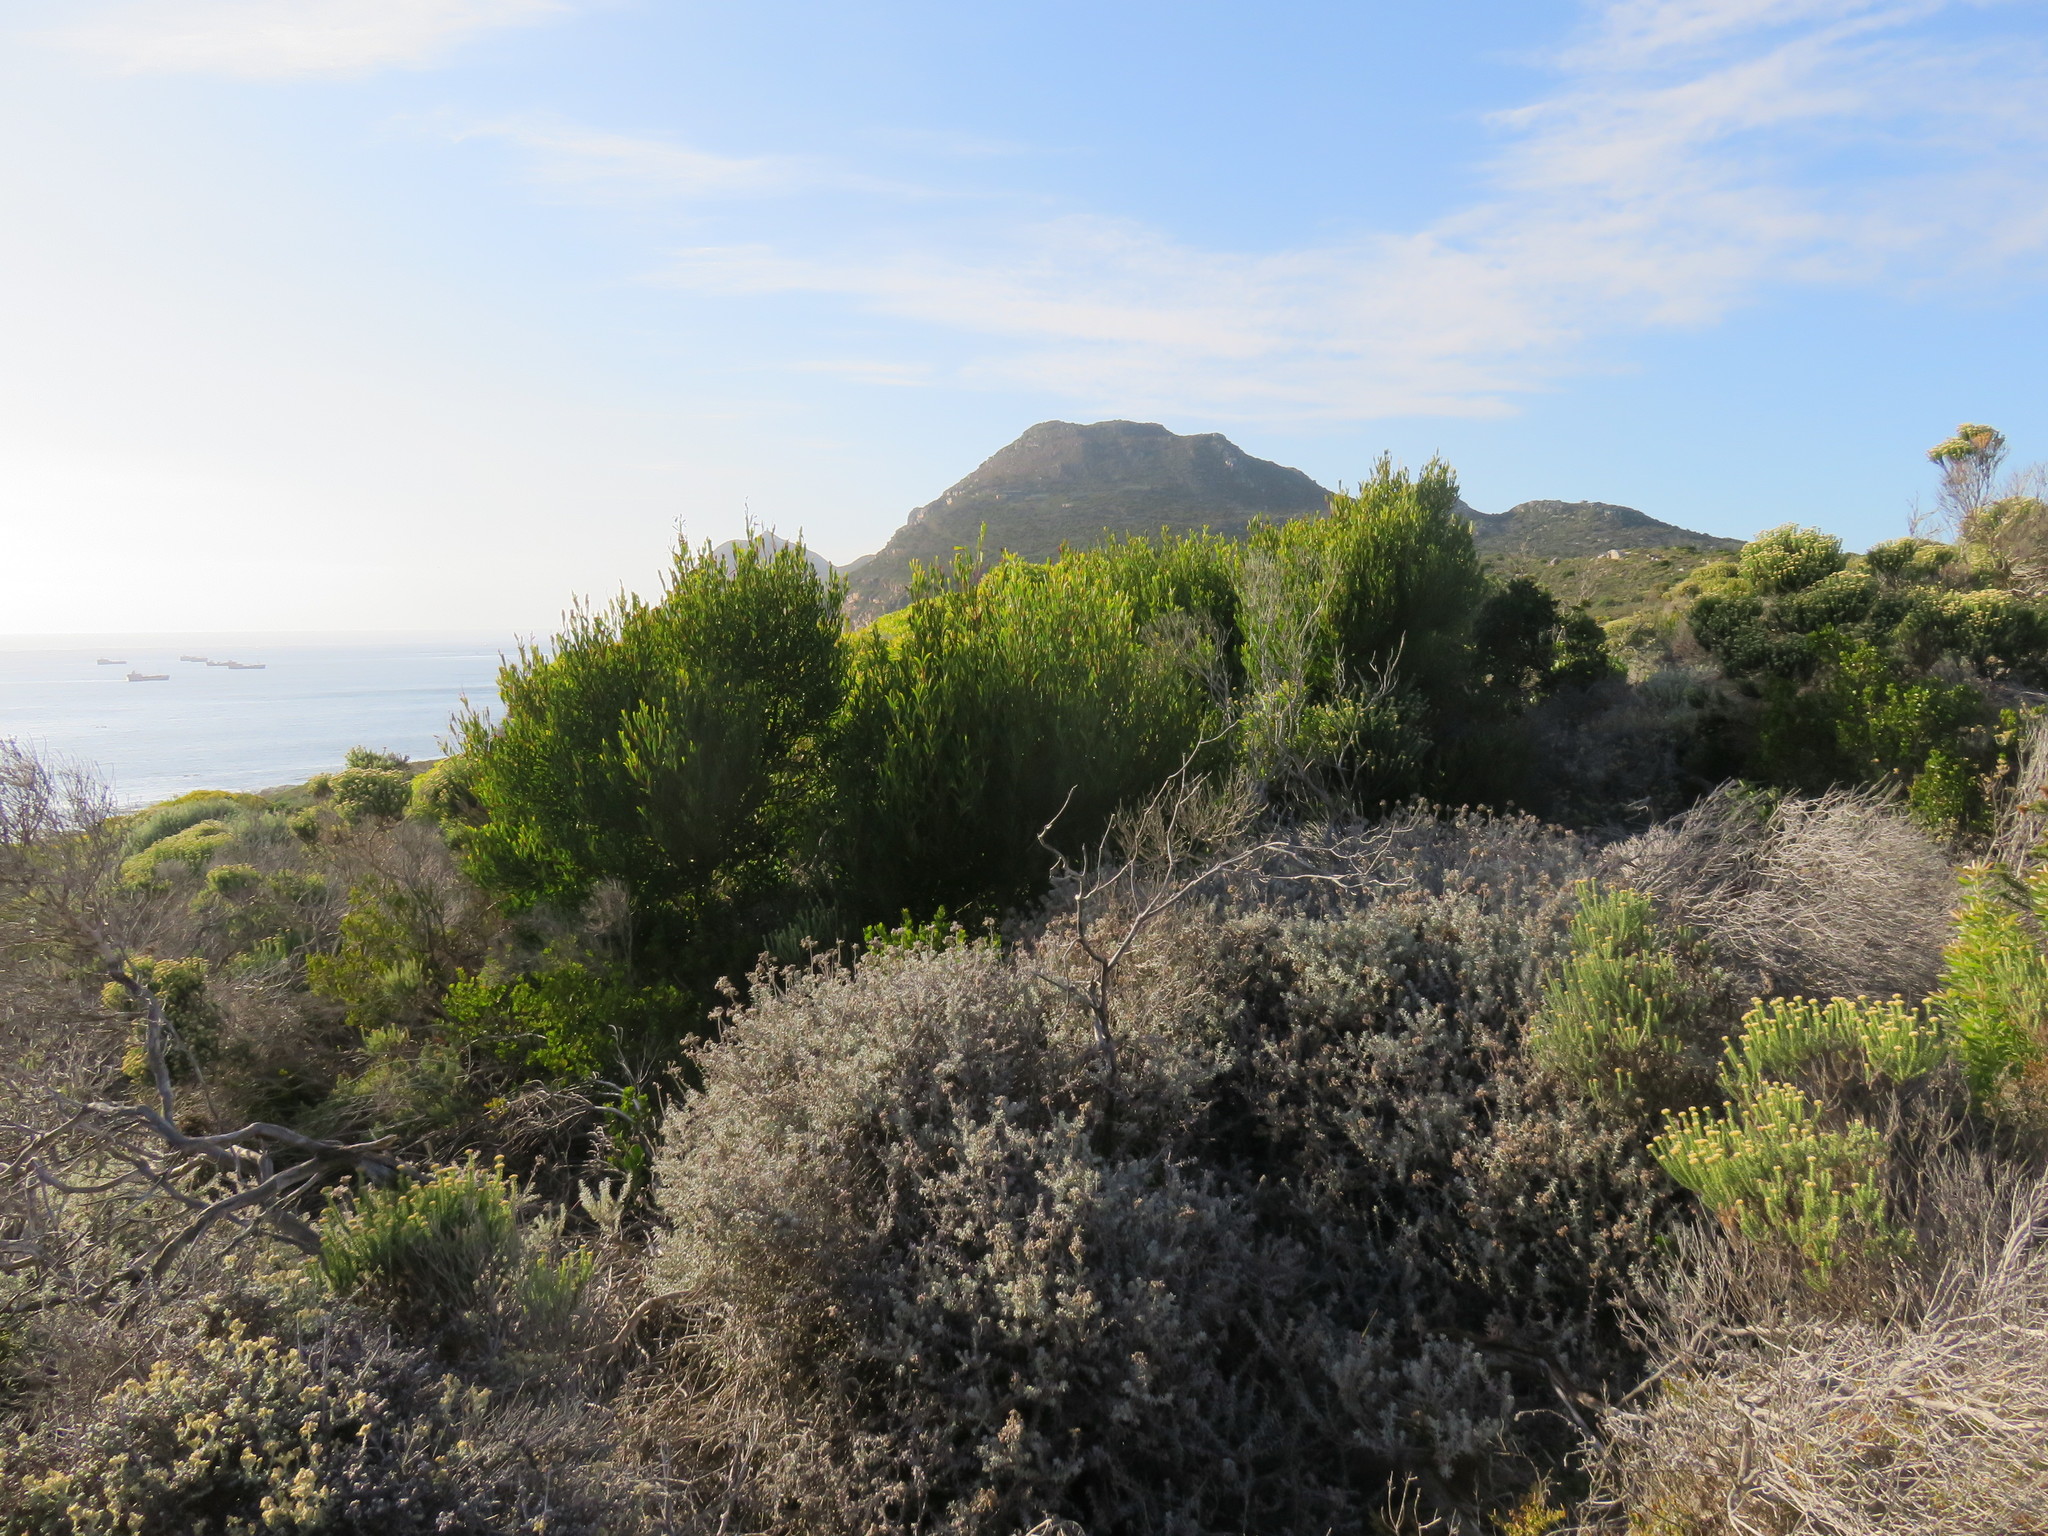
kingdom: Plantae
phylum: Tracheophyta
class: Magnoliopsida
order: Fabales
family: Fabaceae
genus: Acacia
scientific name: Acacia cyclops
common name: Coastal wattle
